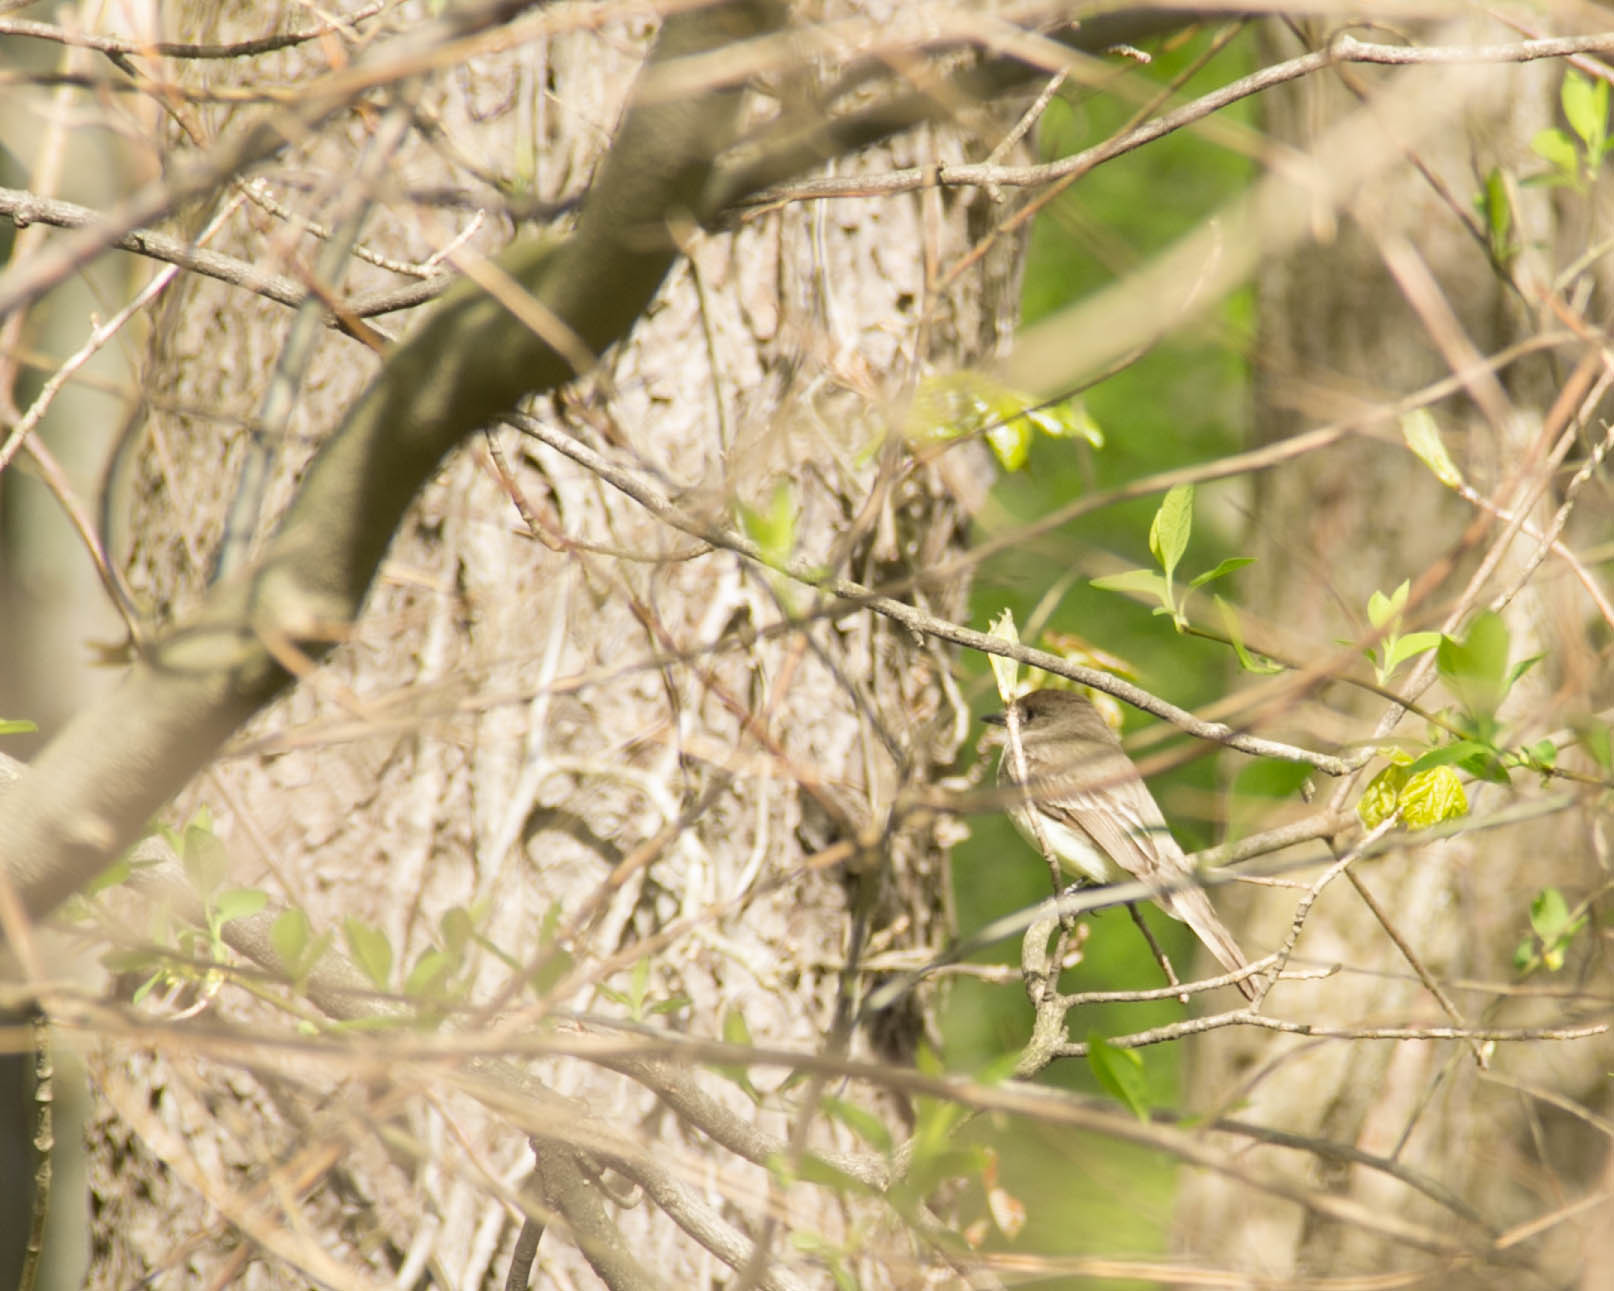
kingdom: Animalia
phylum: Chordata
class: Aves
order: Passeriformes
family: Tyrannidae
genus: Sayornis
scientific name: Sayornis phoebe
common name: Eastern phoebe
